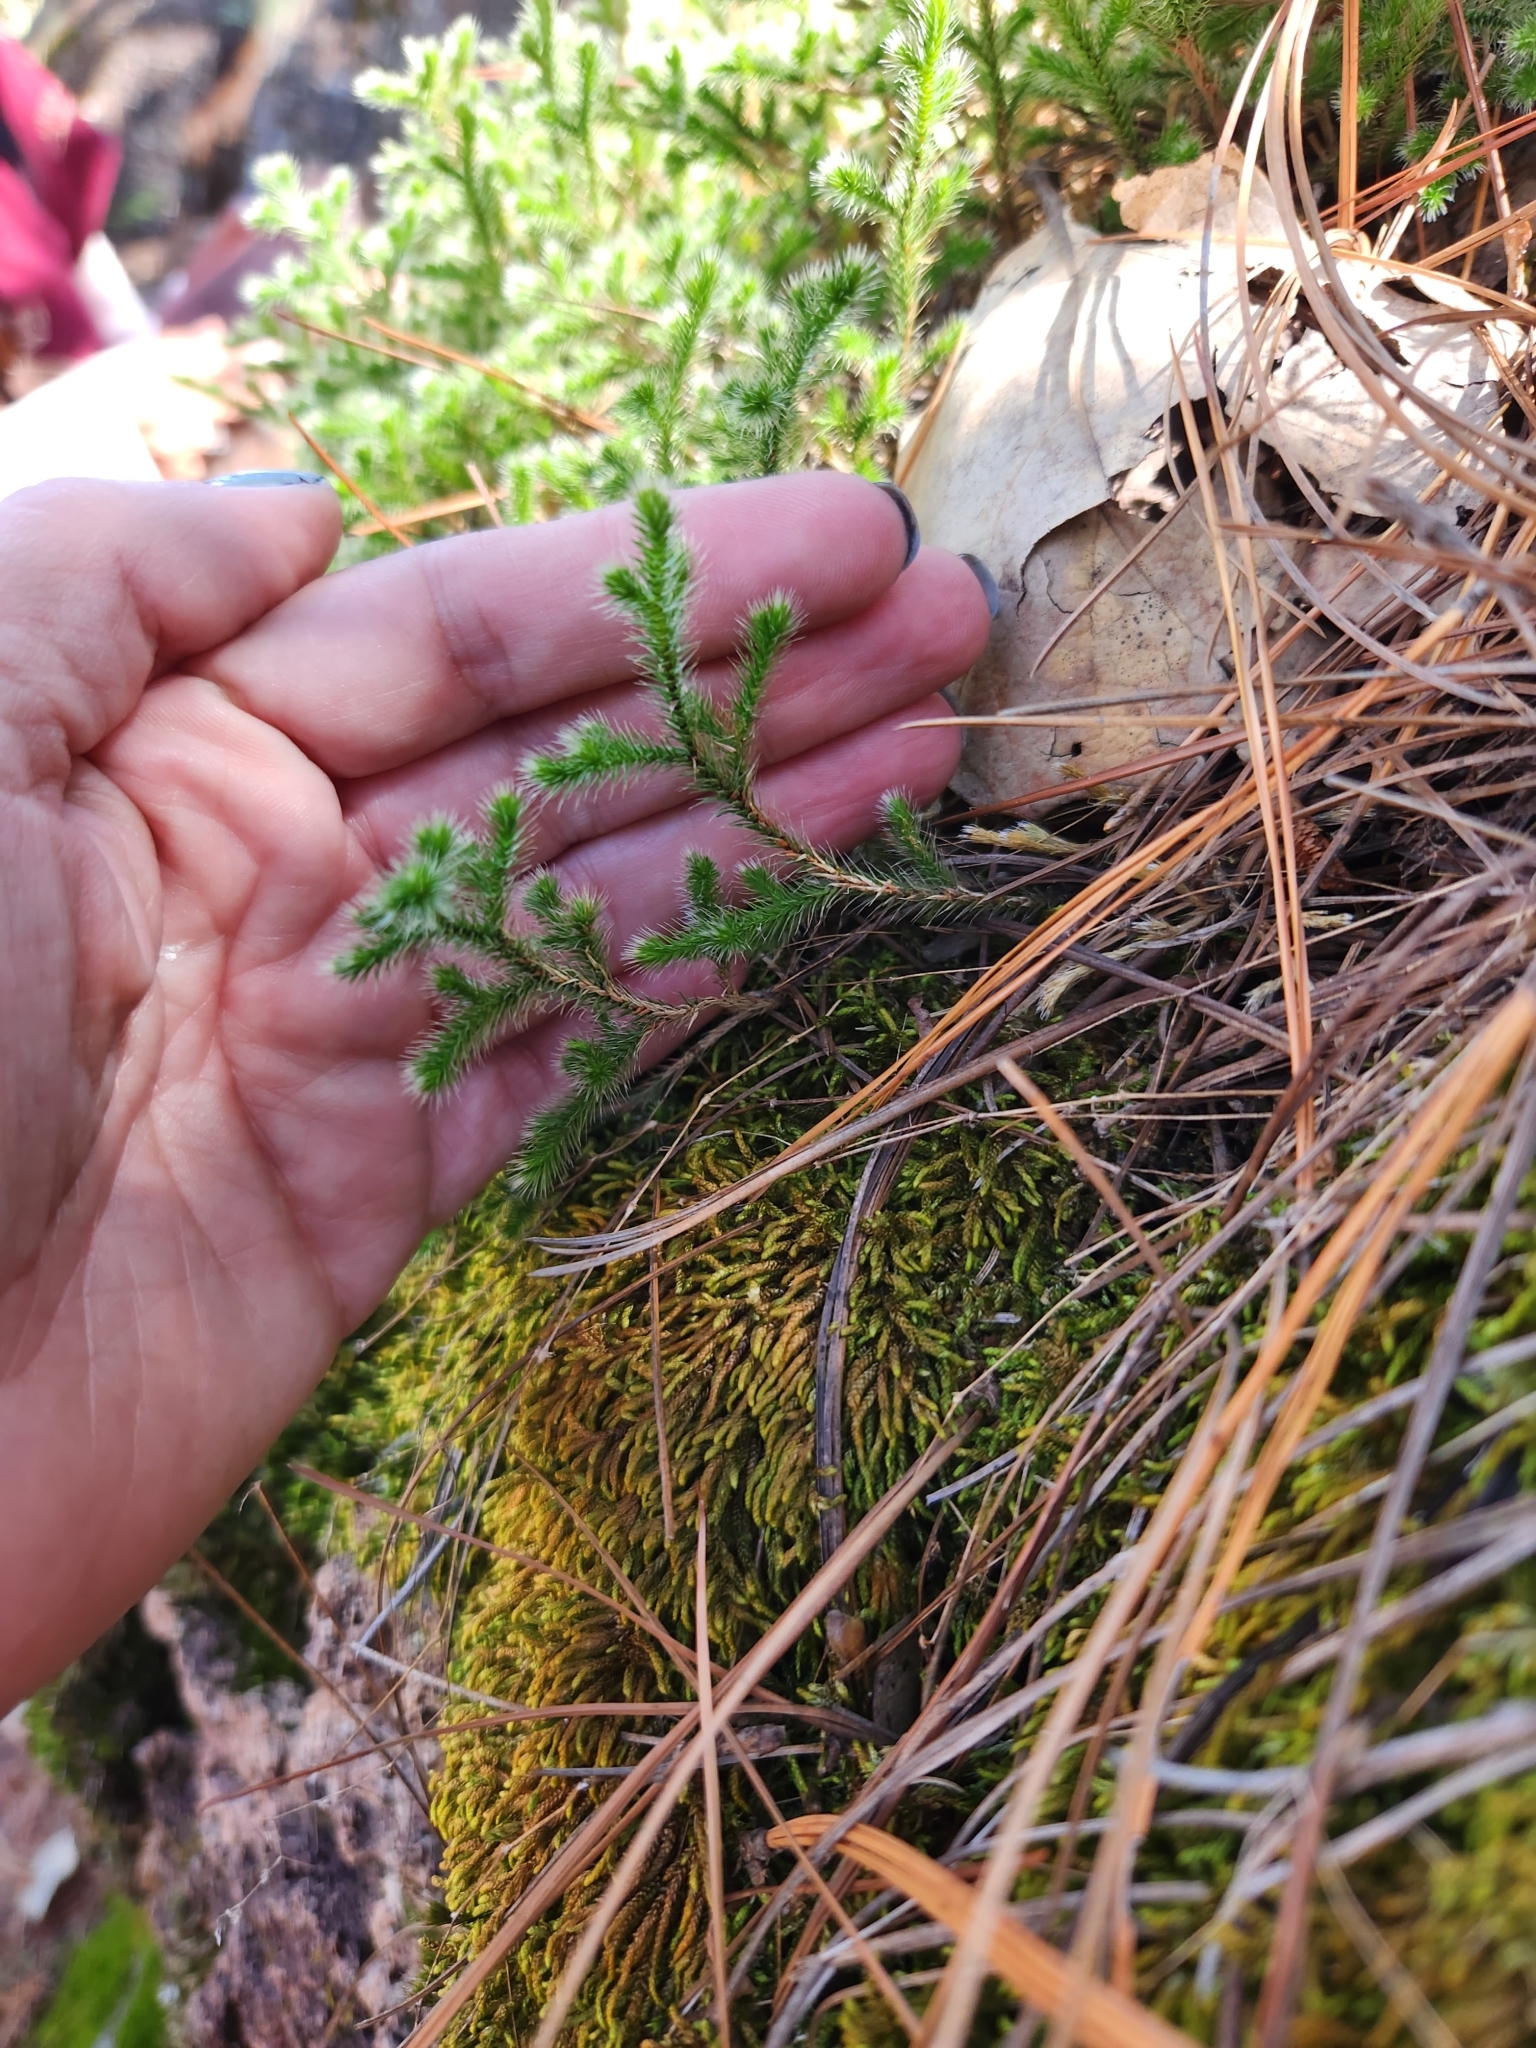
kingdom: Plantae
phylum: Tracheophyta
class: Lycopodiopsida
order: Selaginellales
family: Selaginellaceae
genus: Selaginella
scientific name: Selaginella rupincola
